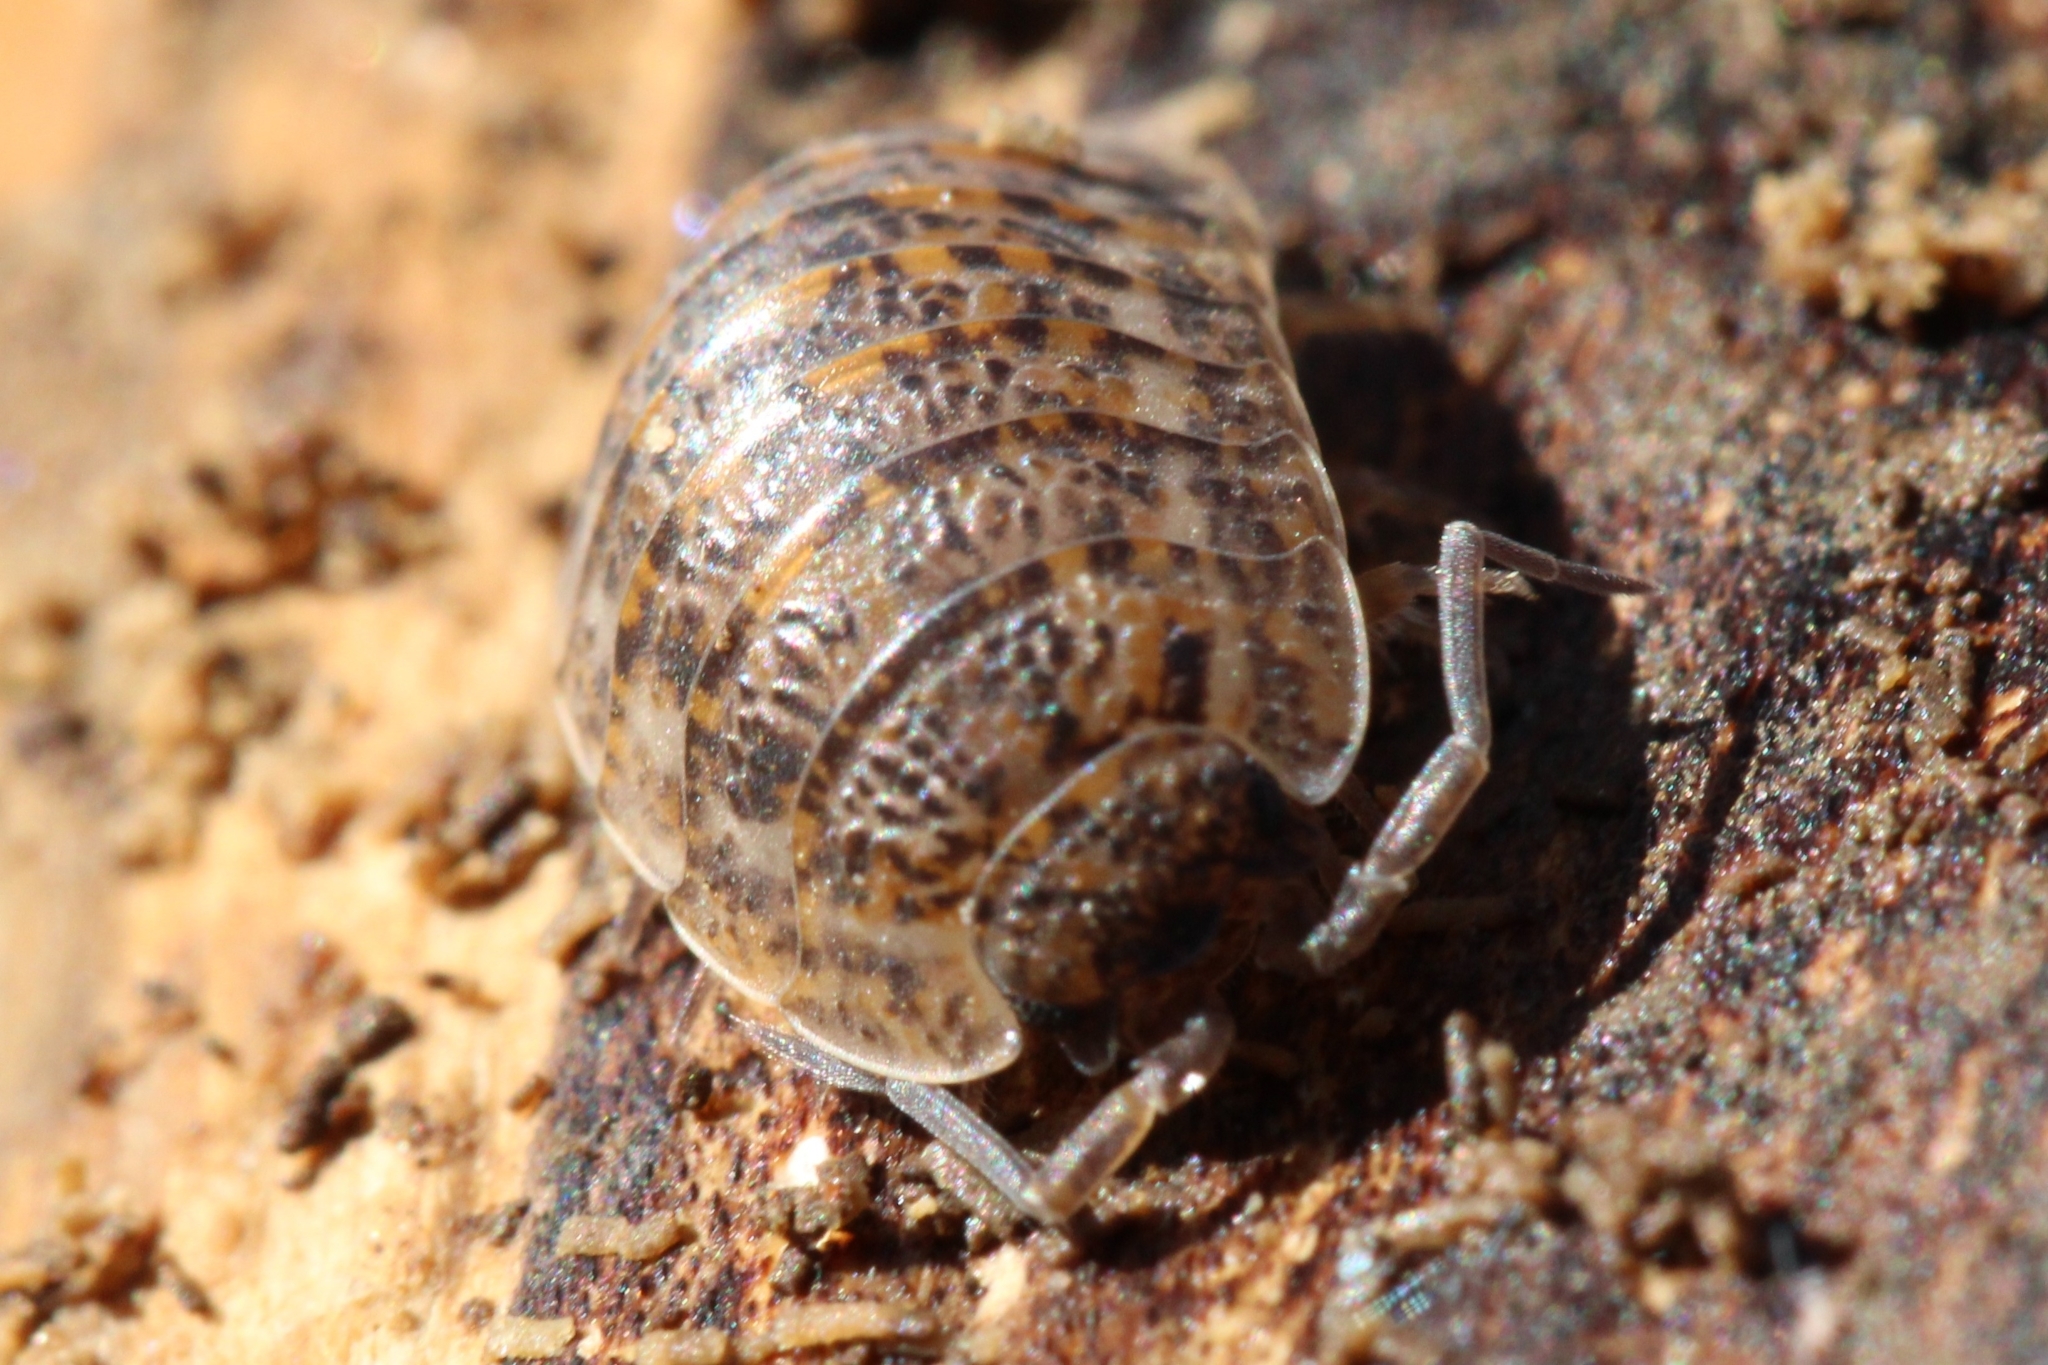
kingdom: Animalia
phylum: Arthropoda
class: Malacostraca
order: Isopoda
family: Trachelipodidae
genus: Trachelipus
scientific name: Trachelipus rathkii
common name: Isopod
